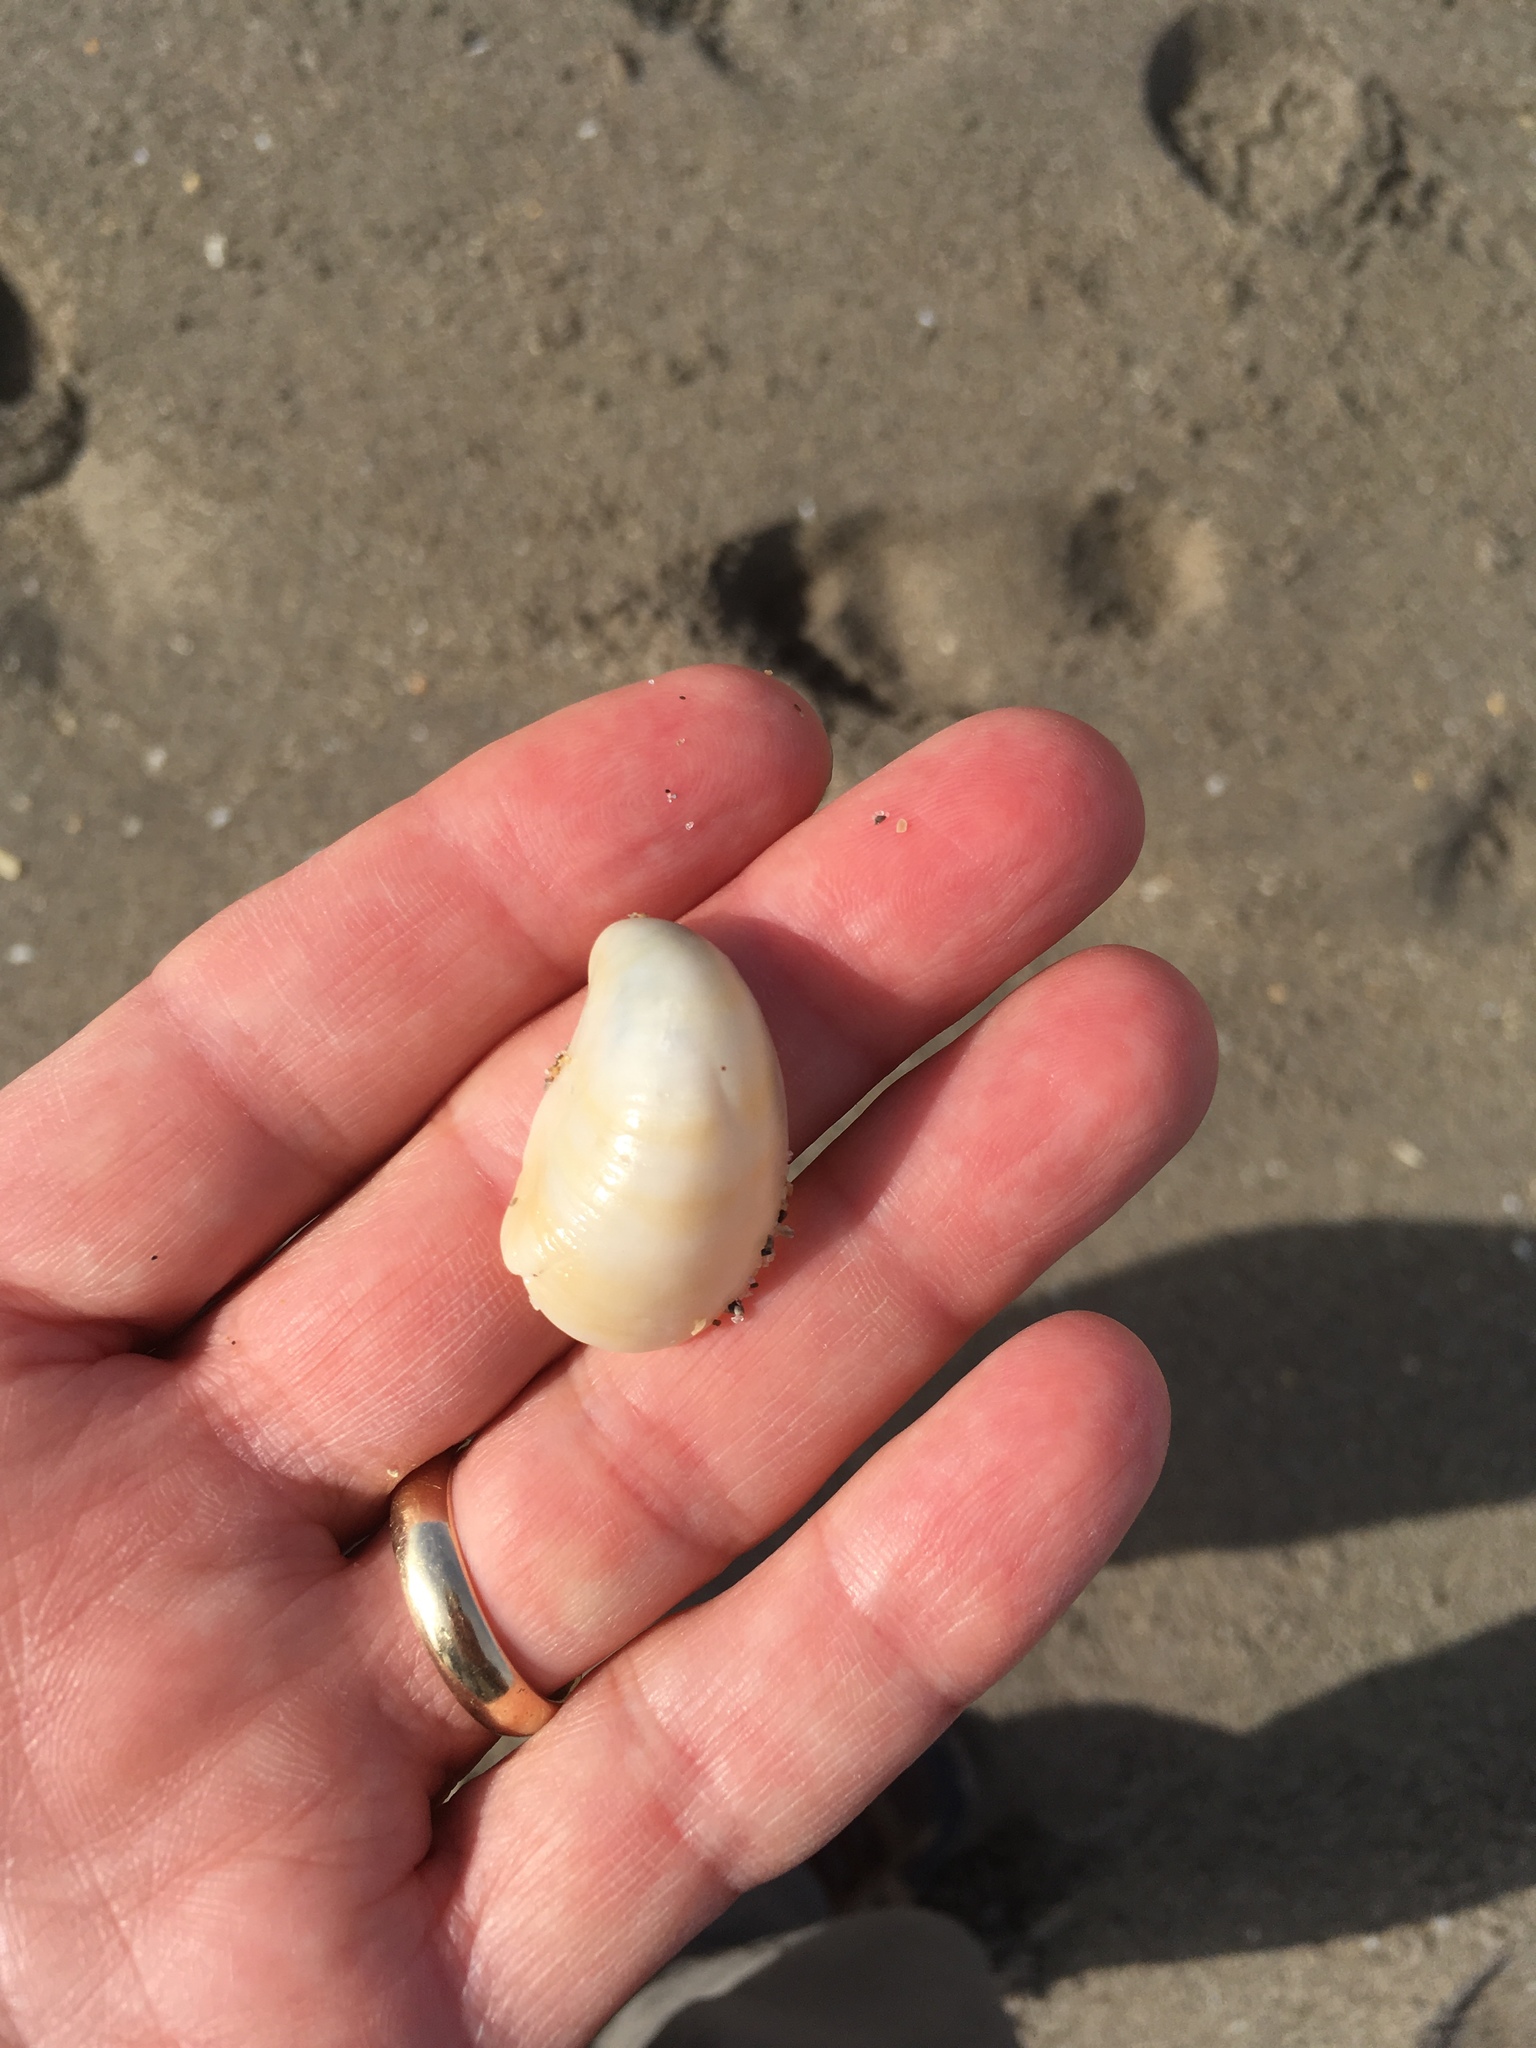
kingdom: Animalia
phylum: Mollusca
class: Gastropoda
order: Littorinimorpha
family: Calyptraeidae
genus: Crepidula
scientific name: Crepidula fornicata
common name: Slipper limpet
